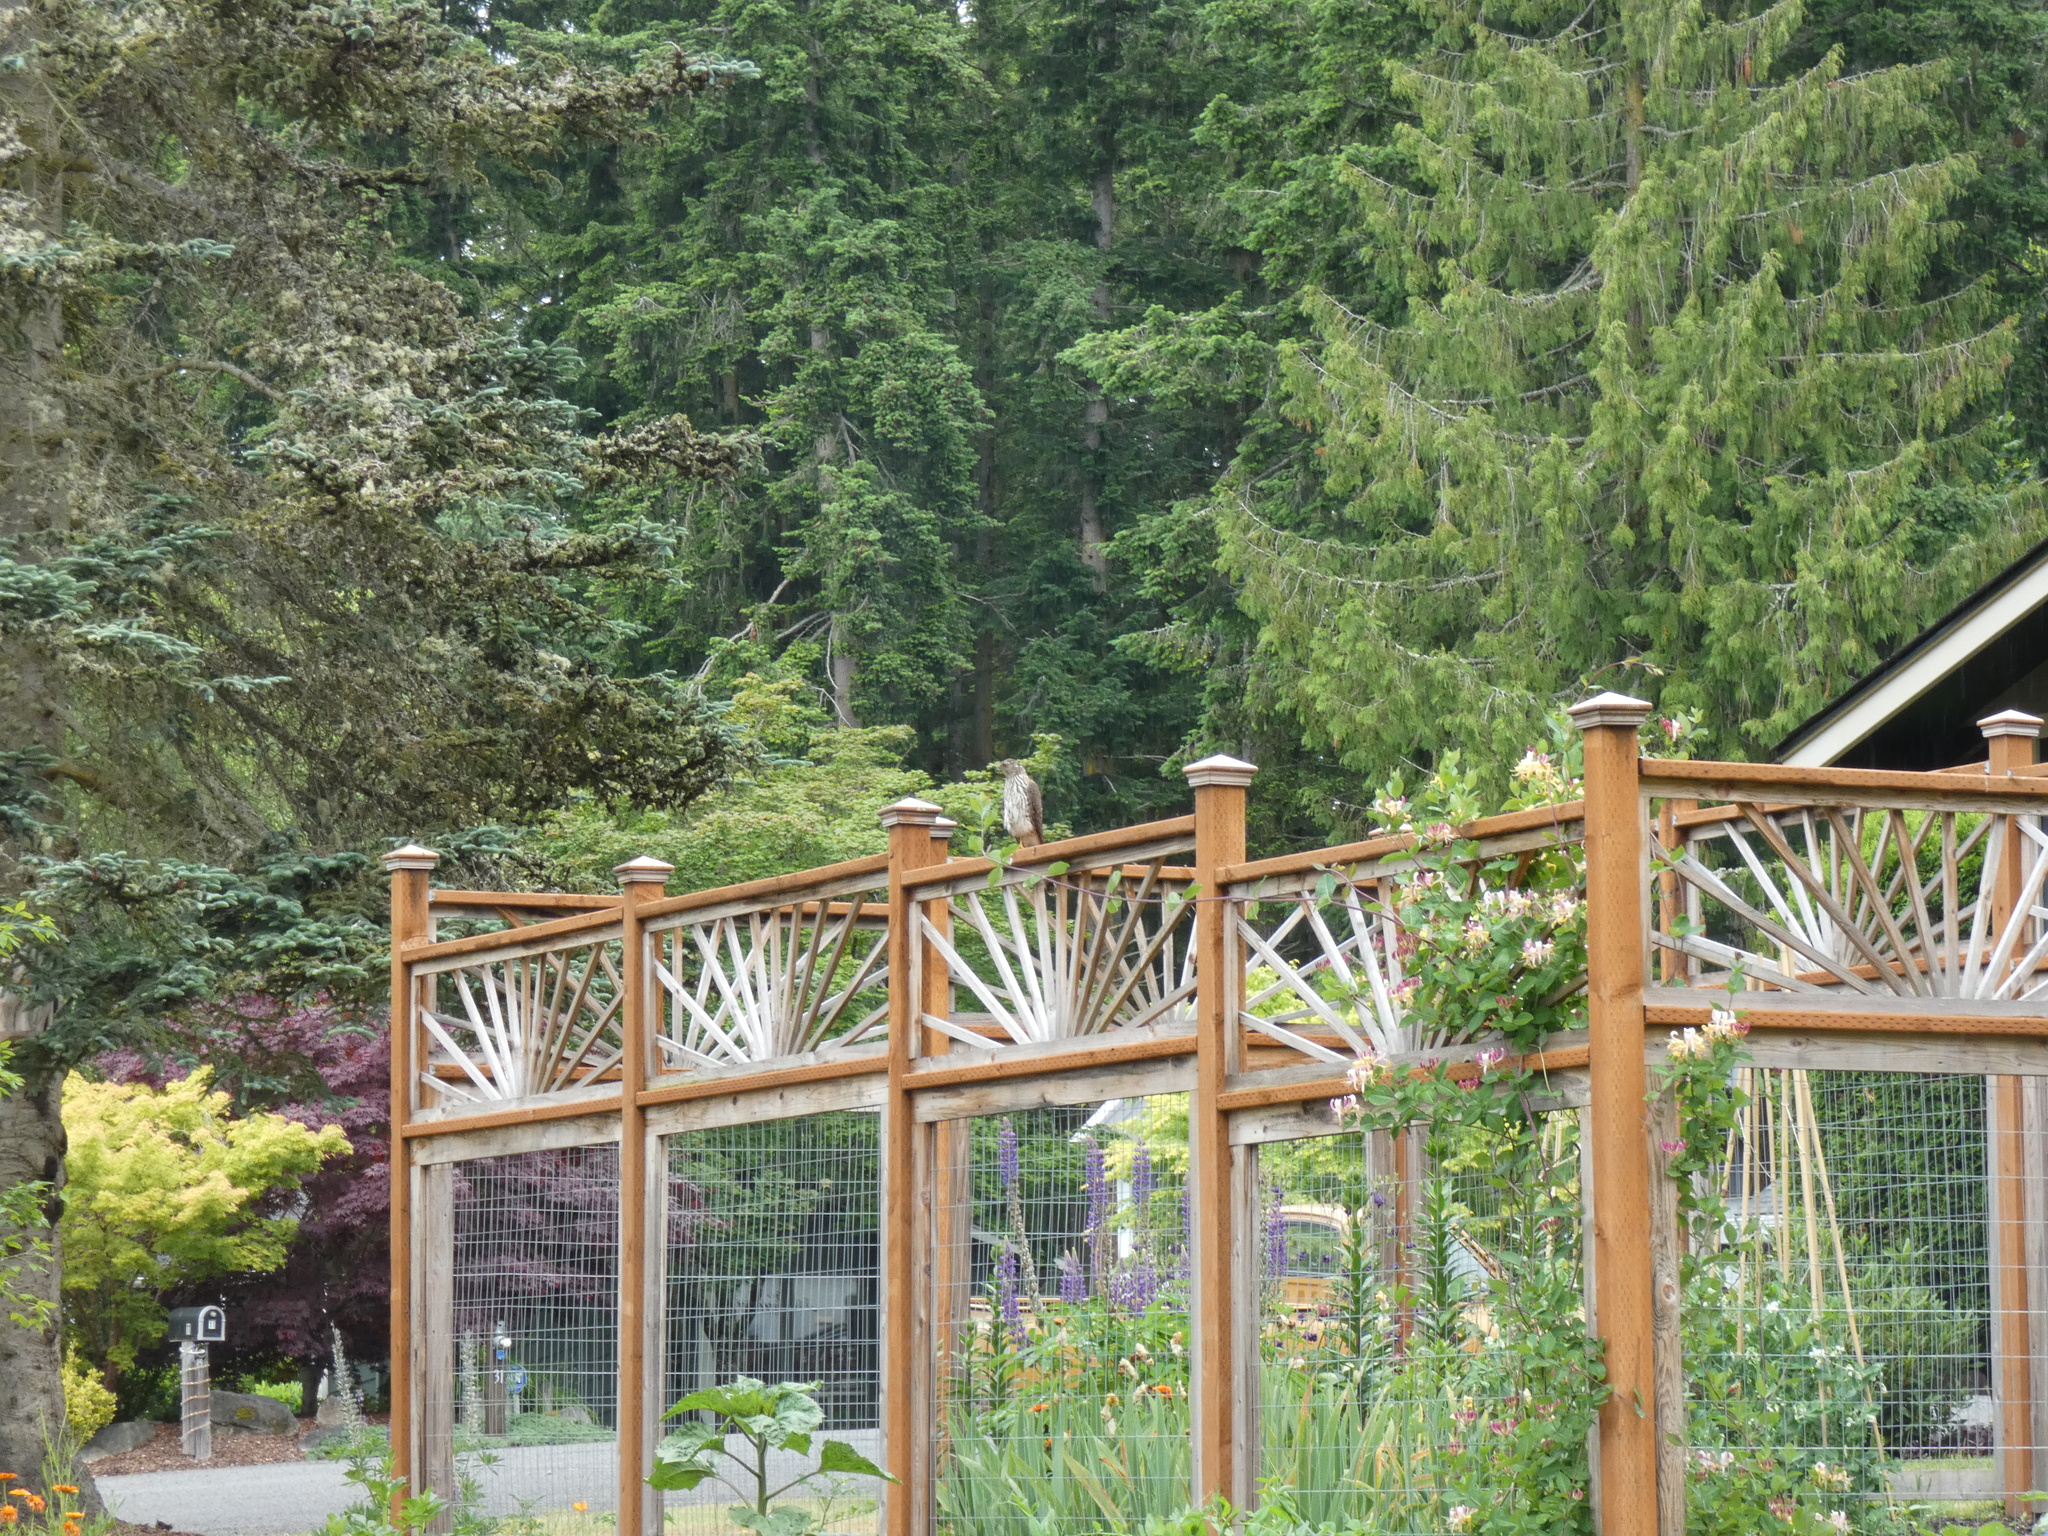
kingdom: Animalia
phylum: Chordata
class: Aves
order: Accipitriformes
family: Accipitridae
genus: Accipiter
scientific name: Accipiter cooperii
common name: Cooper's hawk
